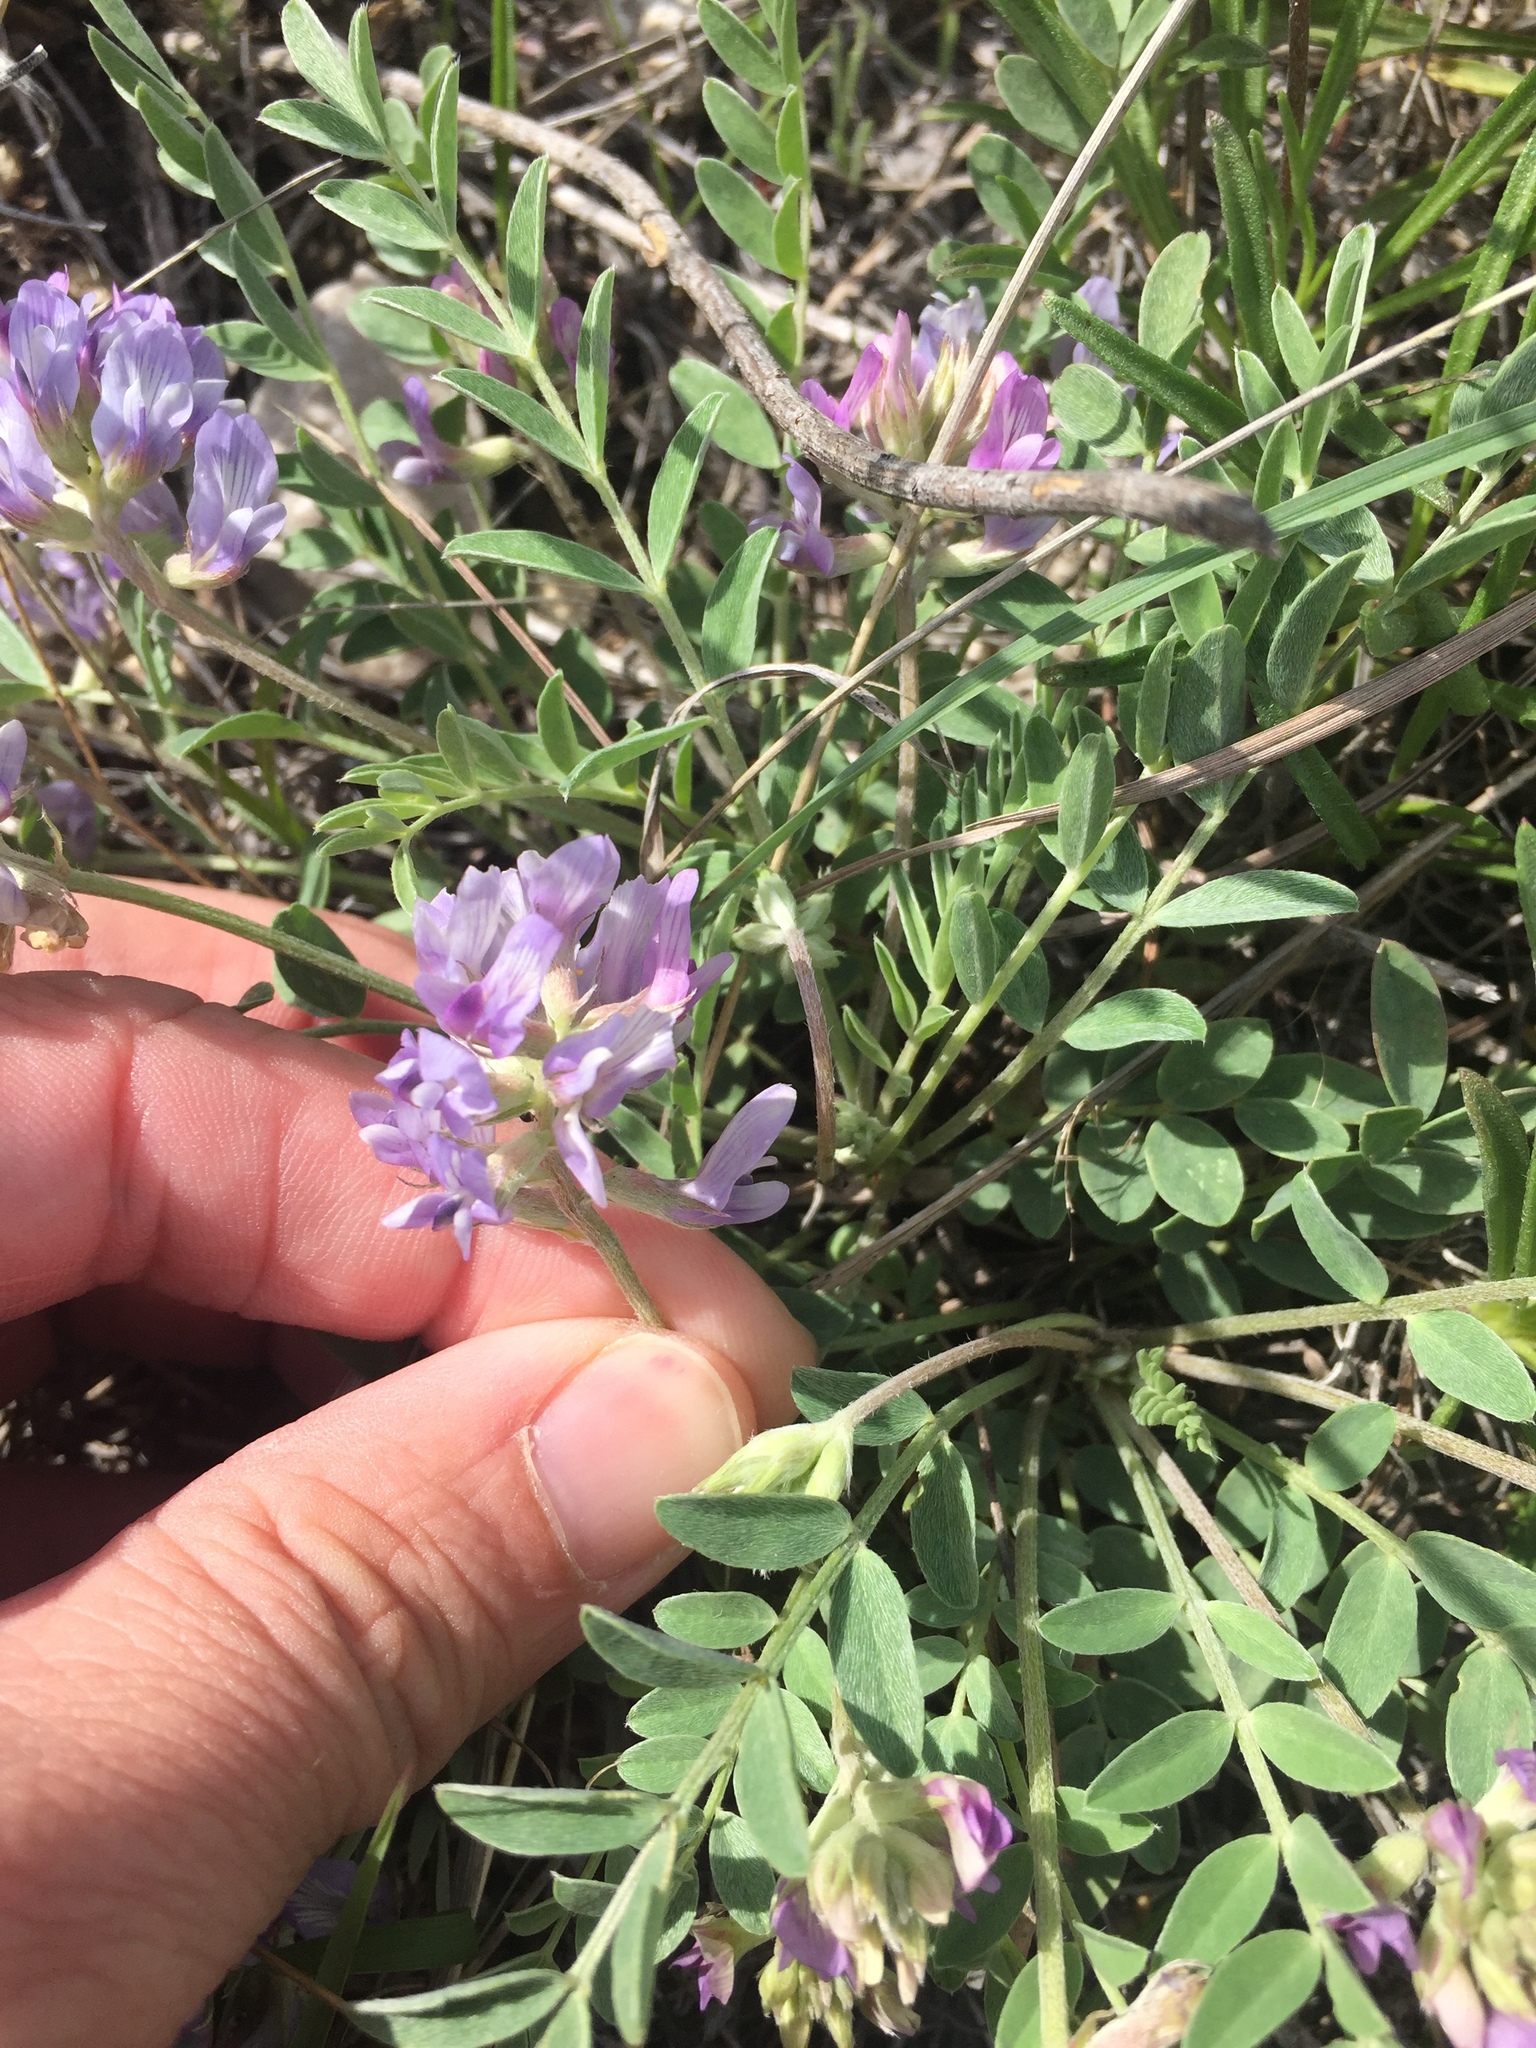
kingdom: Plantae
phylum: Tracheophyta
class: Magnoliopsida
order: Fabales
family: Fabaceae
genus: Astragalus
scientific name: Astragalus lotiflorus
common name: Lotus milk-vetch
